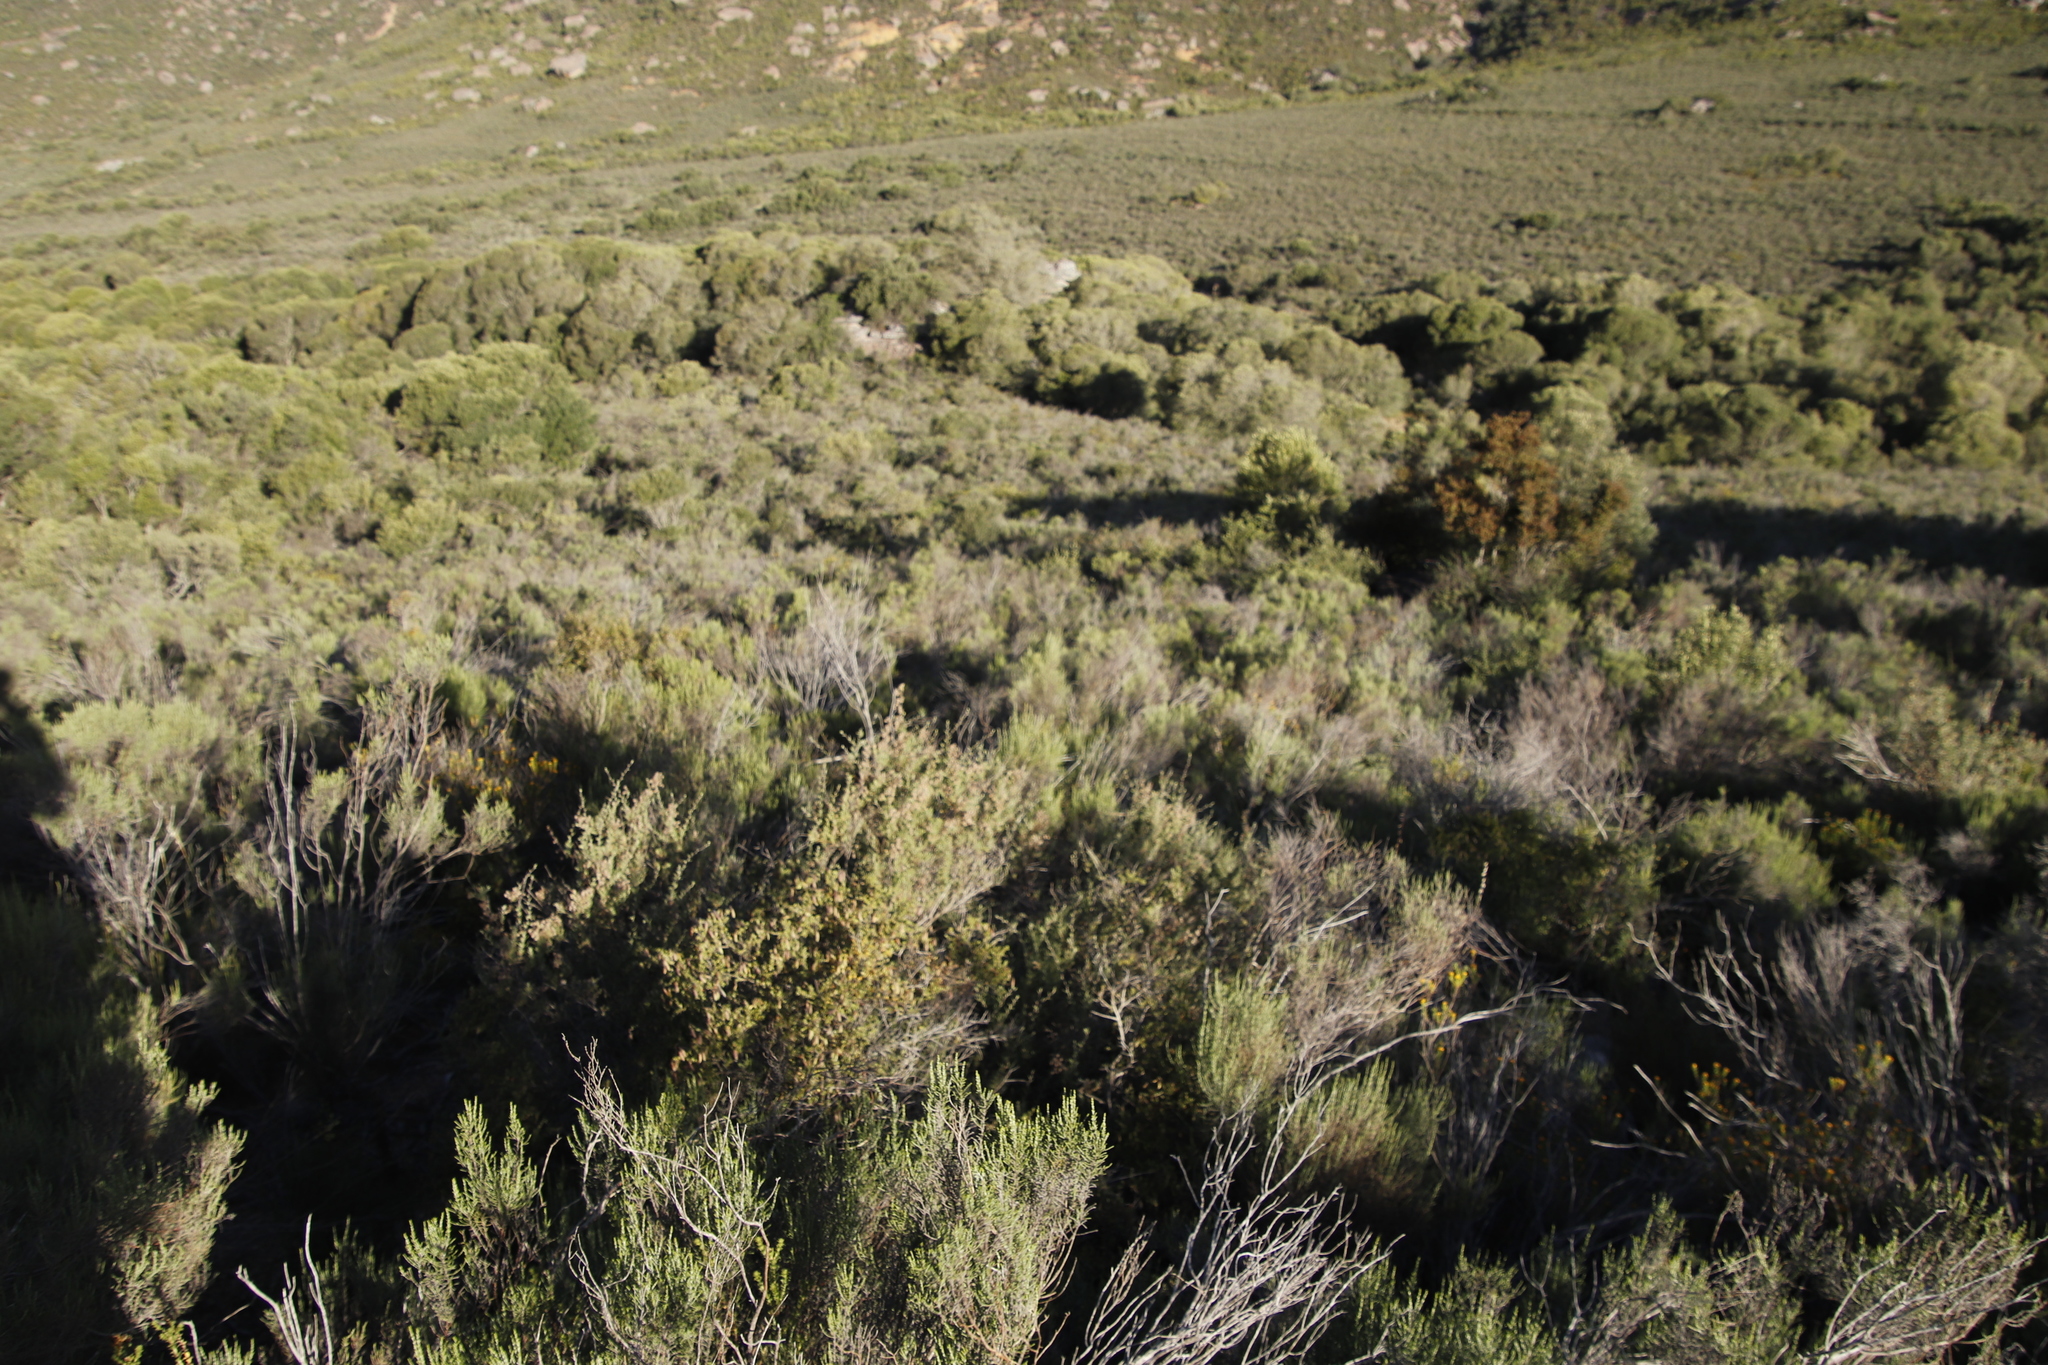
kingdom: Plantae
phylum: Tracheophyta
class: Magnoliopsida
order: Asterales
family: Asteraceae
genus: Dicerothamnus
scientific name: Dicerothamnus rhinocerotis
